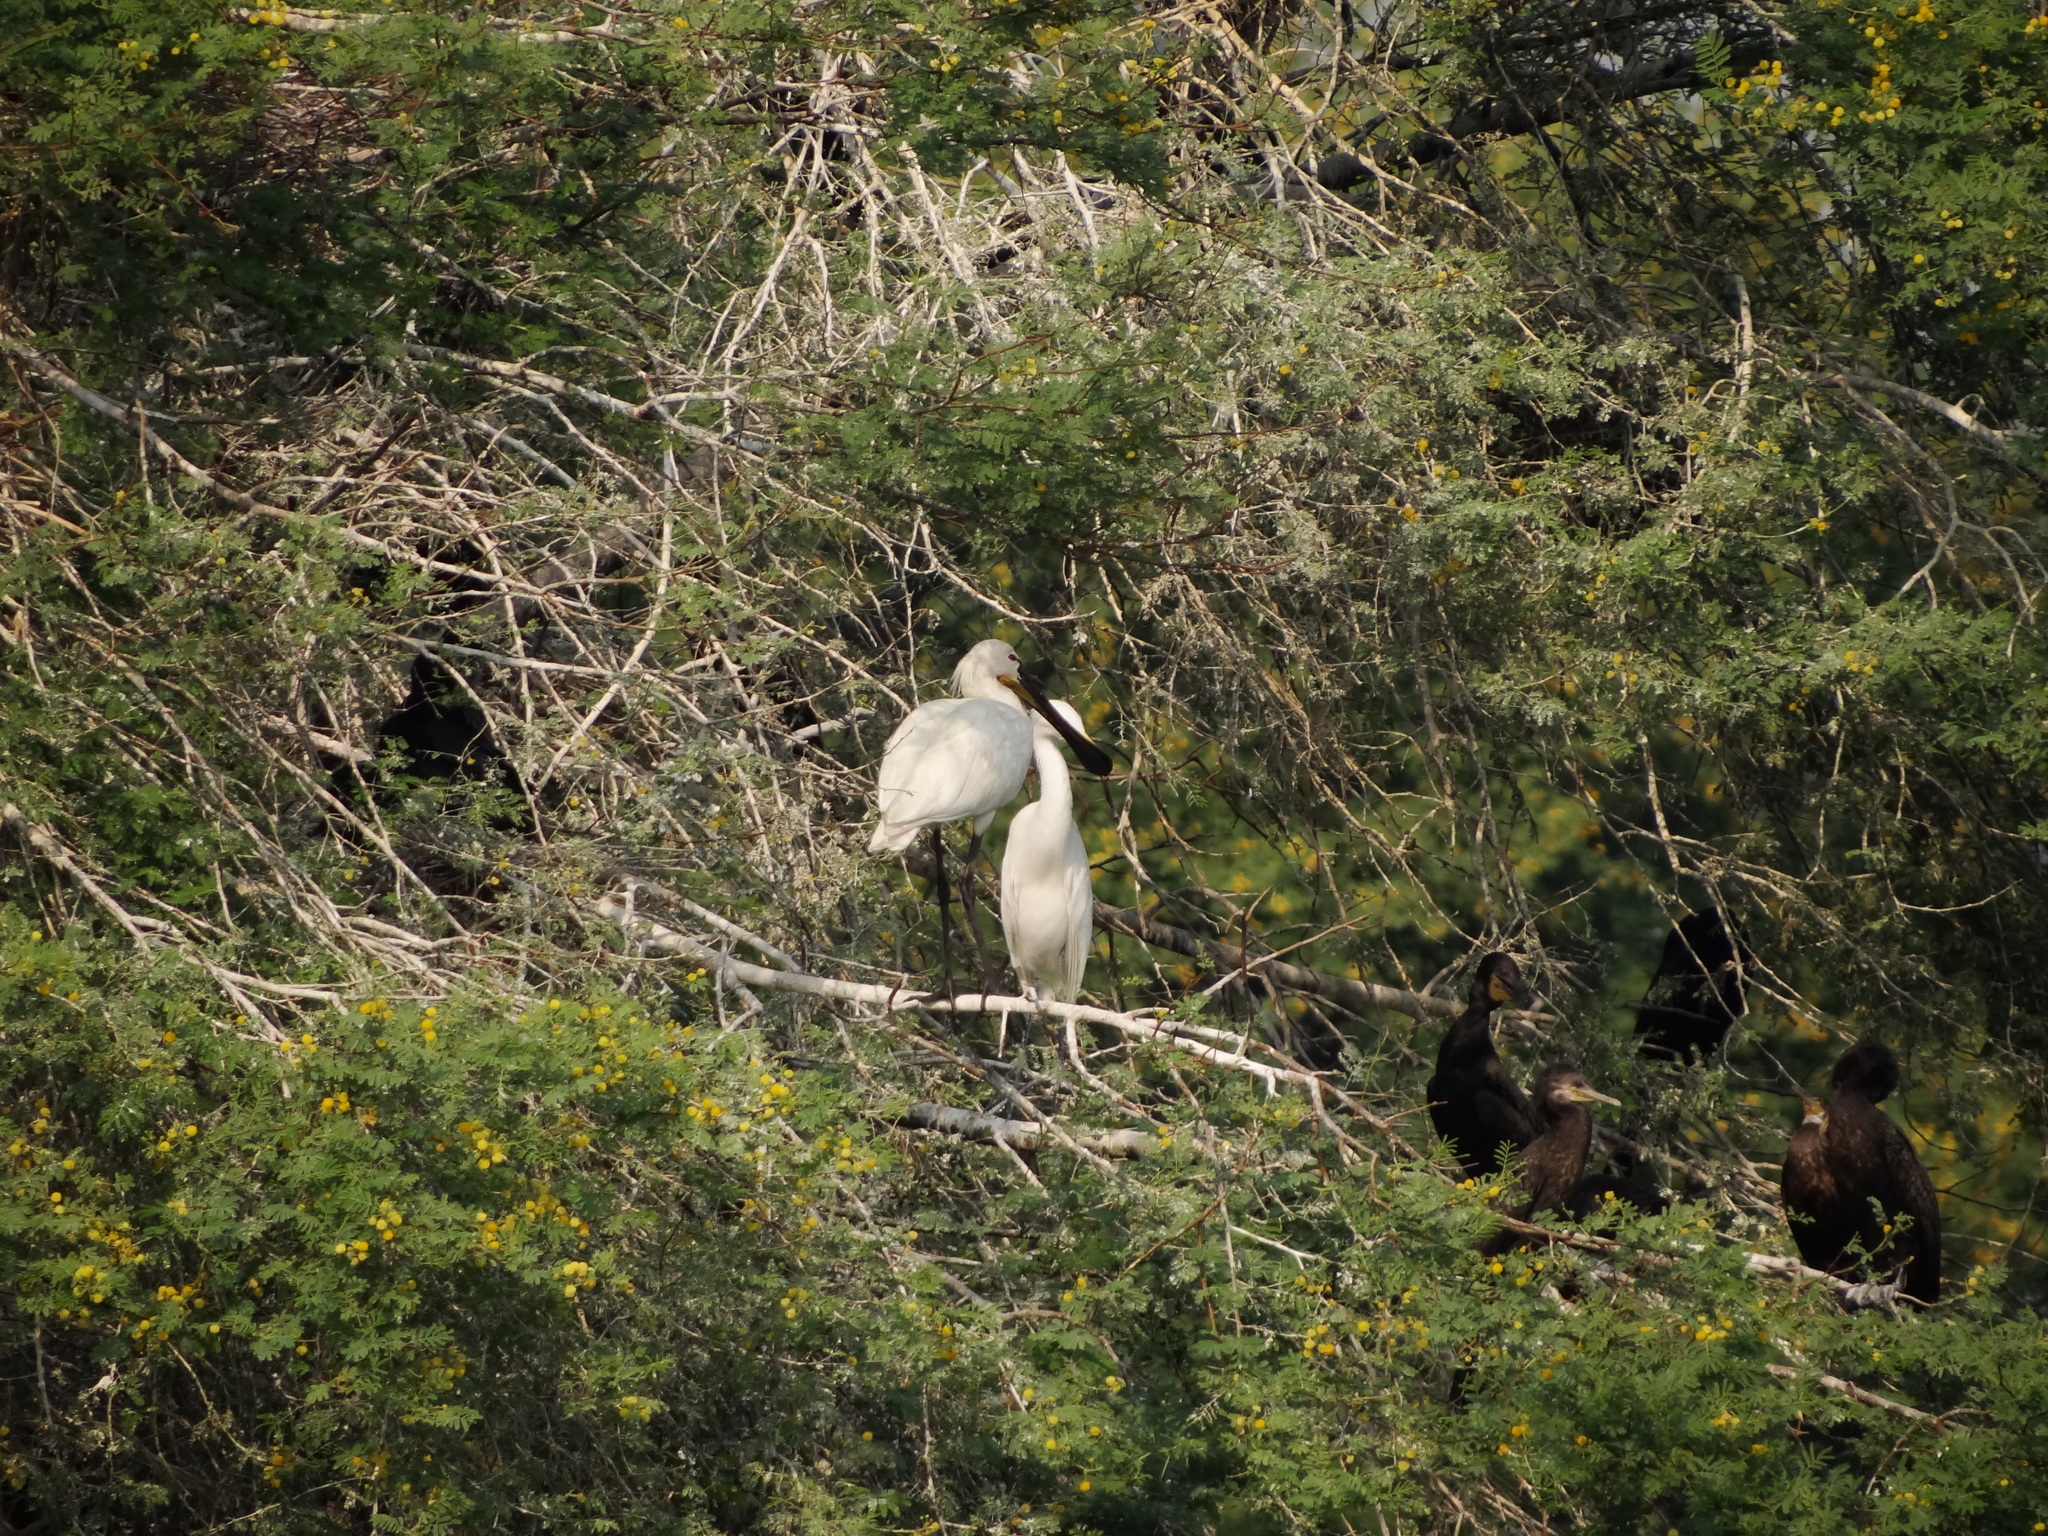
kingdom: Animalia
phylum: Chordata
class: Aves
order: Pelecaniformes
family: Threskiornithidae
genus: Platalea
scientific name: Platalea leucorodia
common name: Eurasian spoonbill
